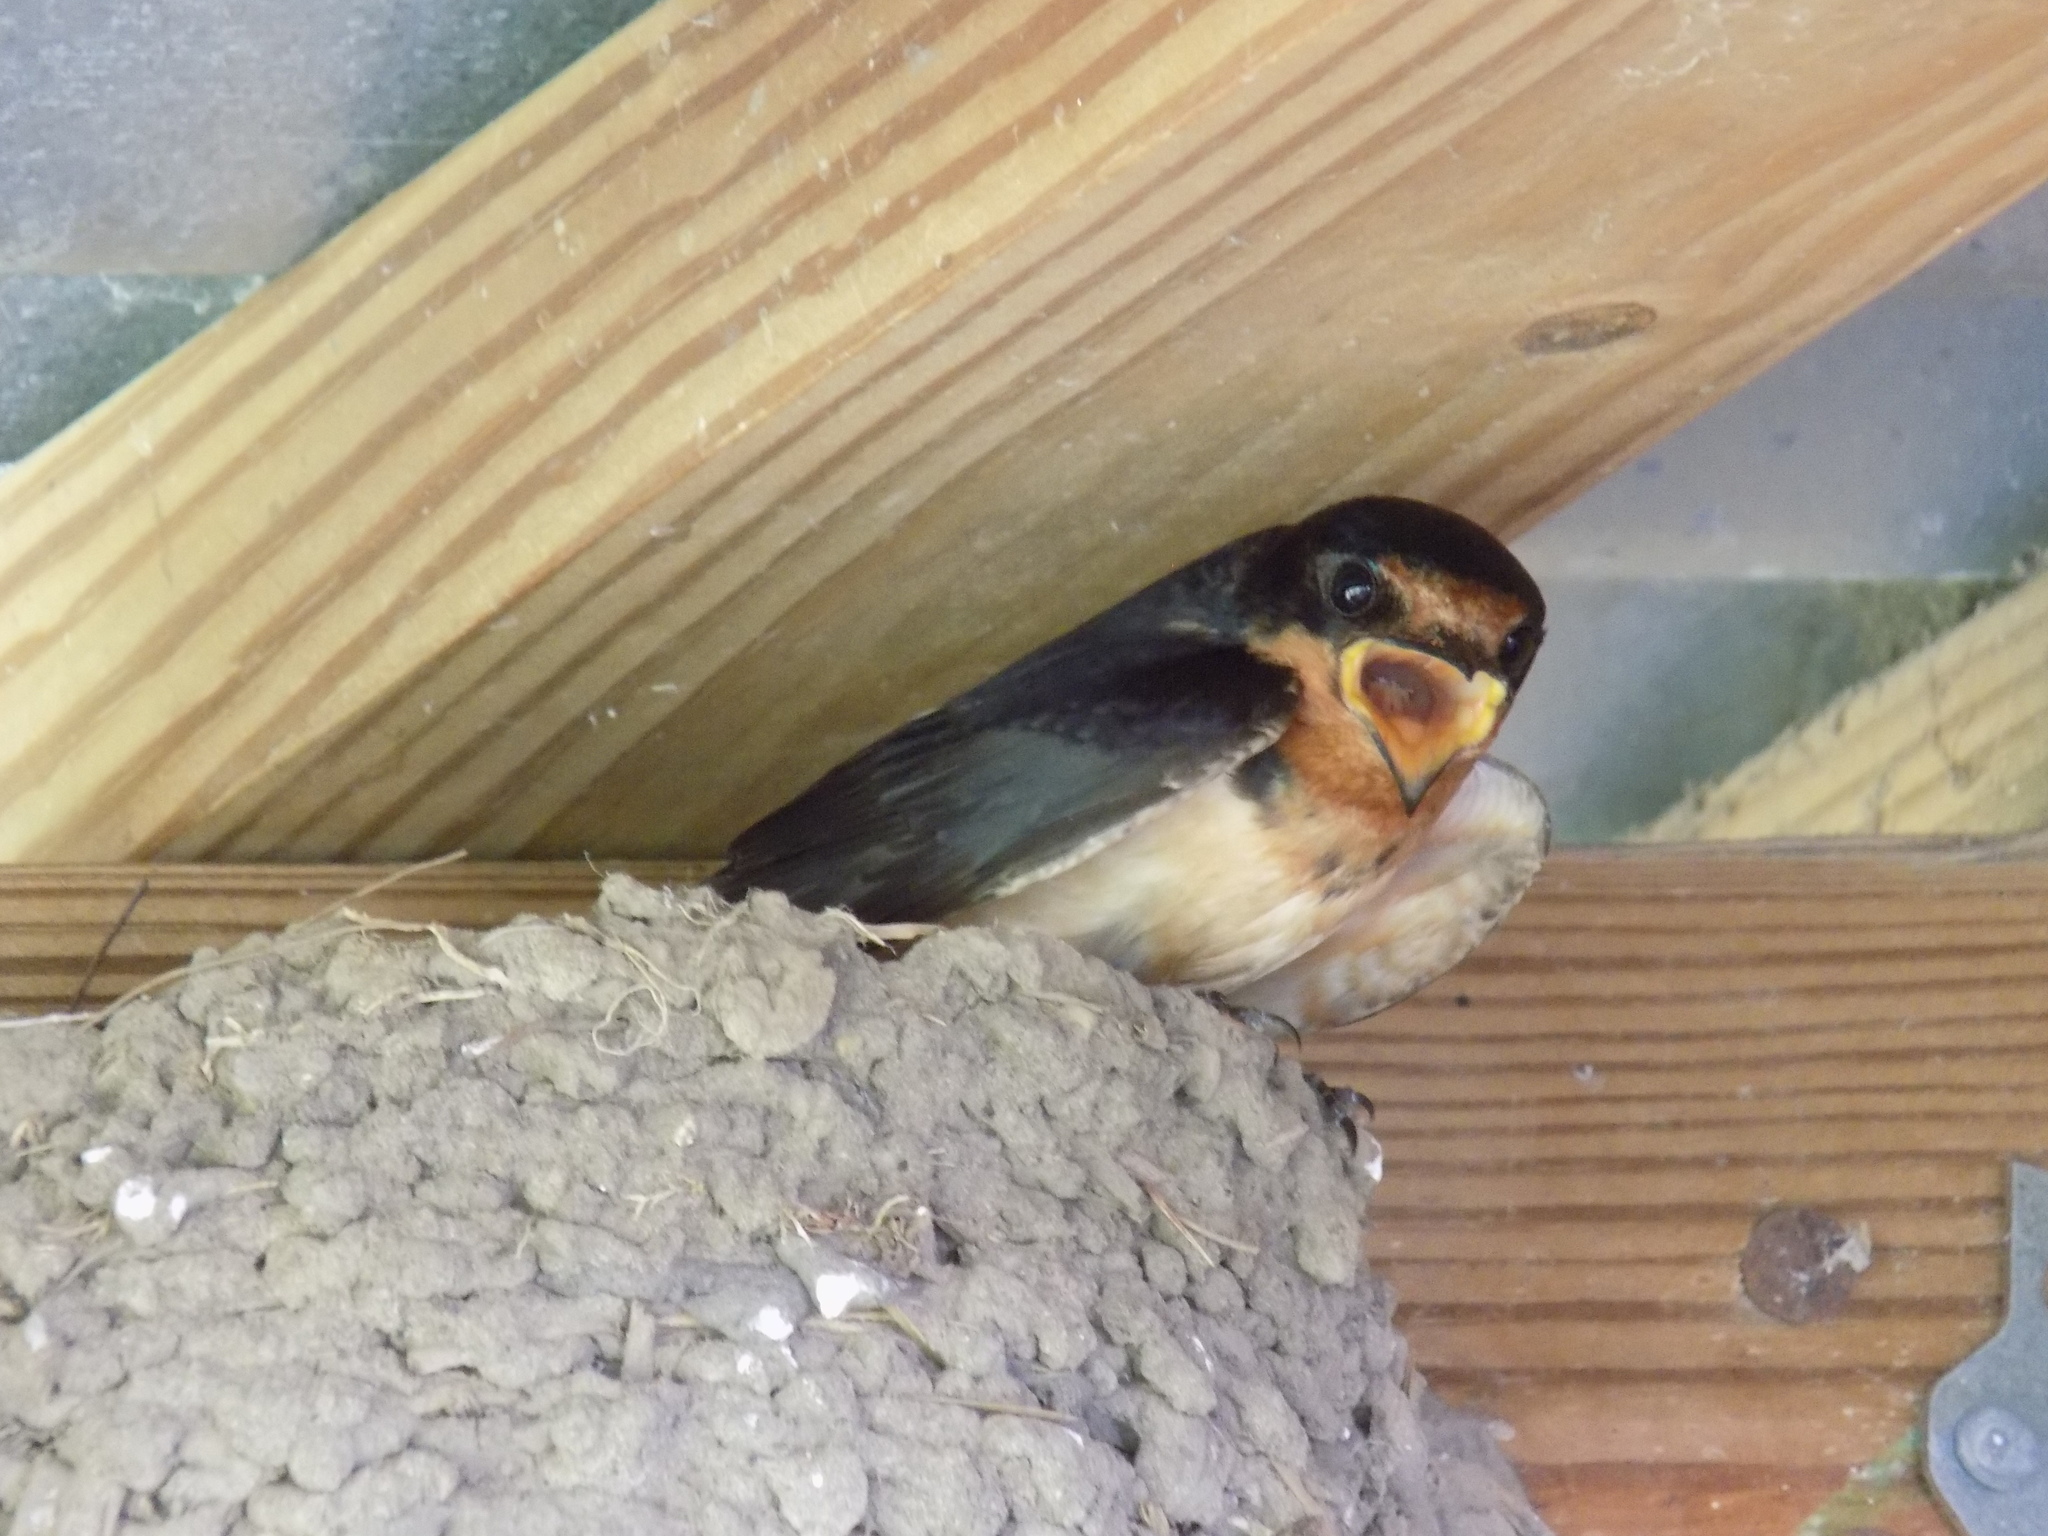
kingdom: Animalia
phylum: Chordata
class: Aves
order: Passeriformes
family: Hirundinidae
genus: Hirundo
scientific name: Hirundo rustica
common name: Barn swallow
